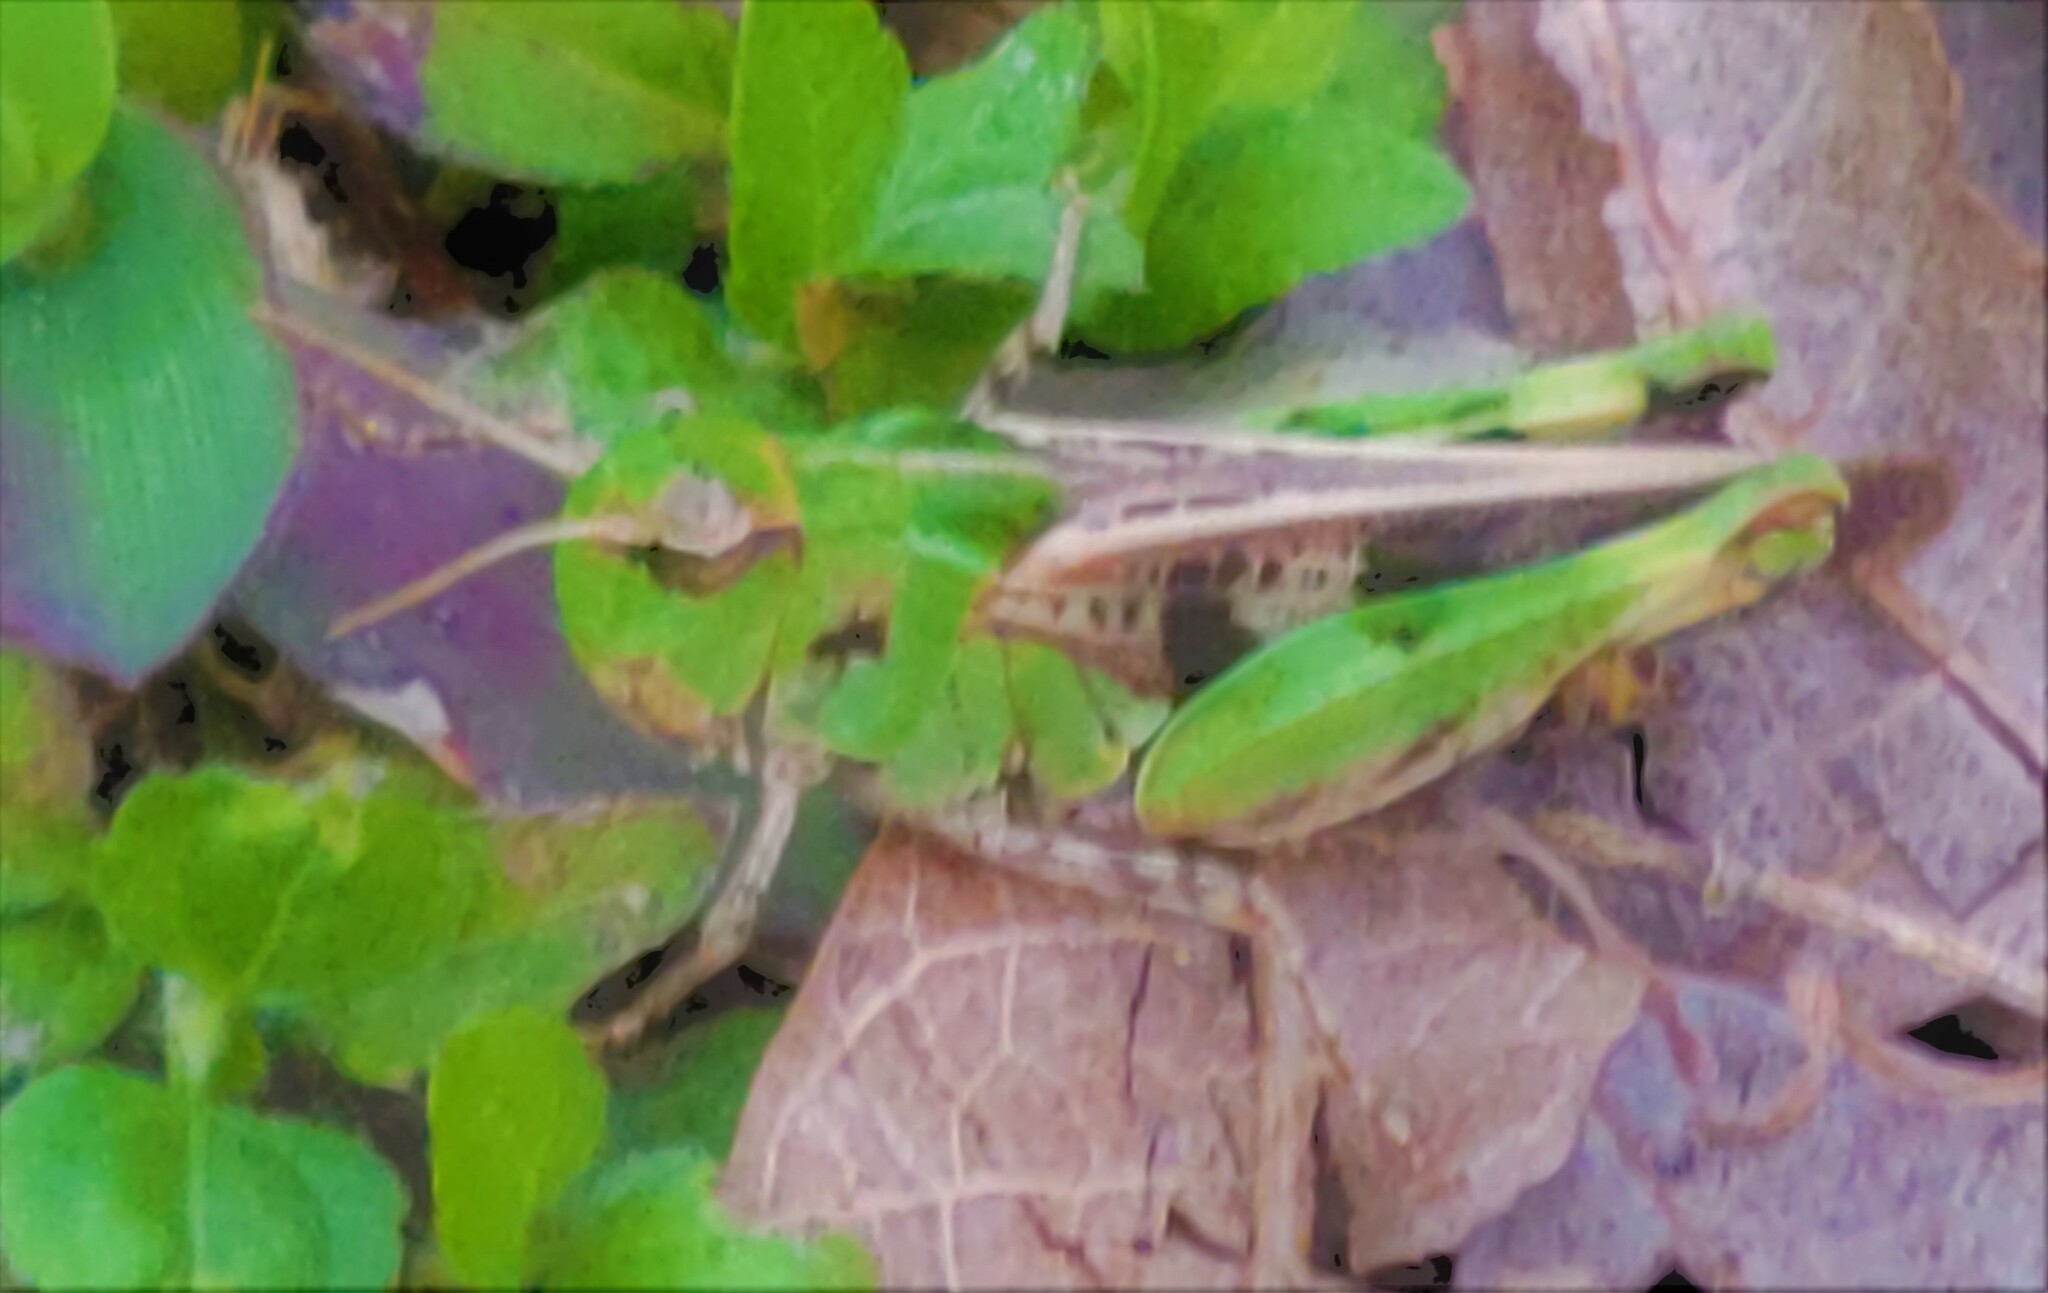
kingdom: Animalia
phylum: Arthropoda
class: Insecta
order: Orthoptera
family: Acrididae
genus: Encoptolophus
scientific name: Encoptolophus costalis
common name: Dusky grasshopper
